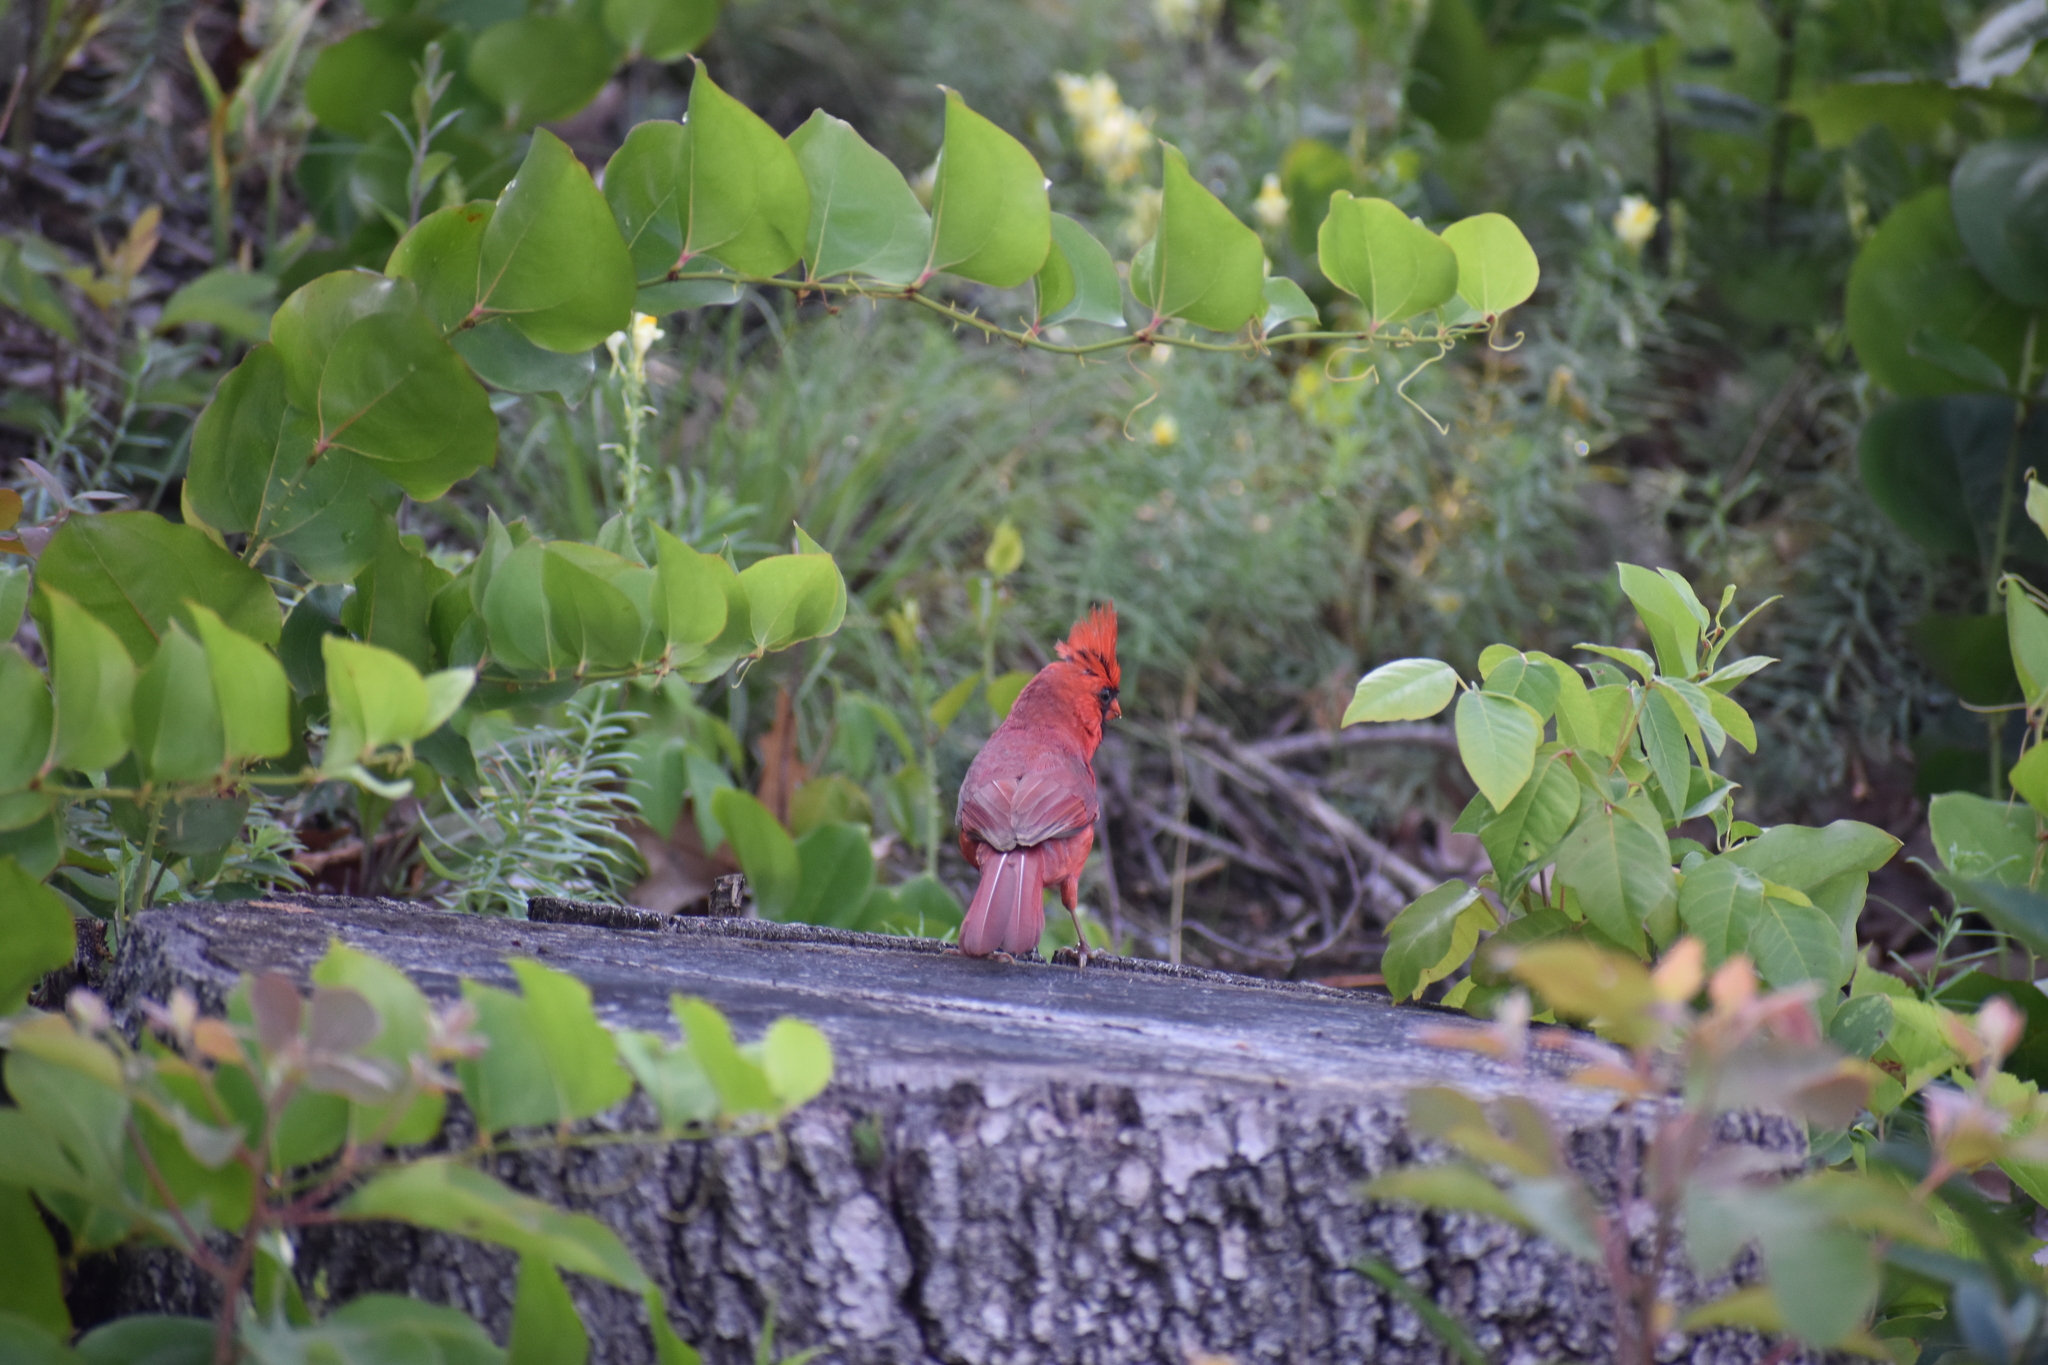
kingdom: Animalia
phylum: Chordata
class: Aves
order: Passeriformes
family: Cardinalidae
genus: Cardinalis
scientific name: Cardinalis cardinalis
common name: Northern cardinal
